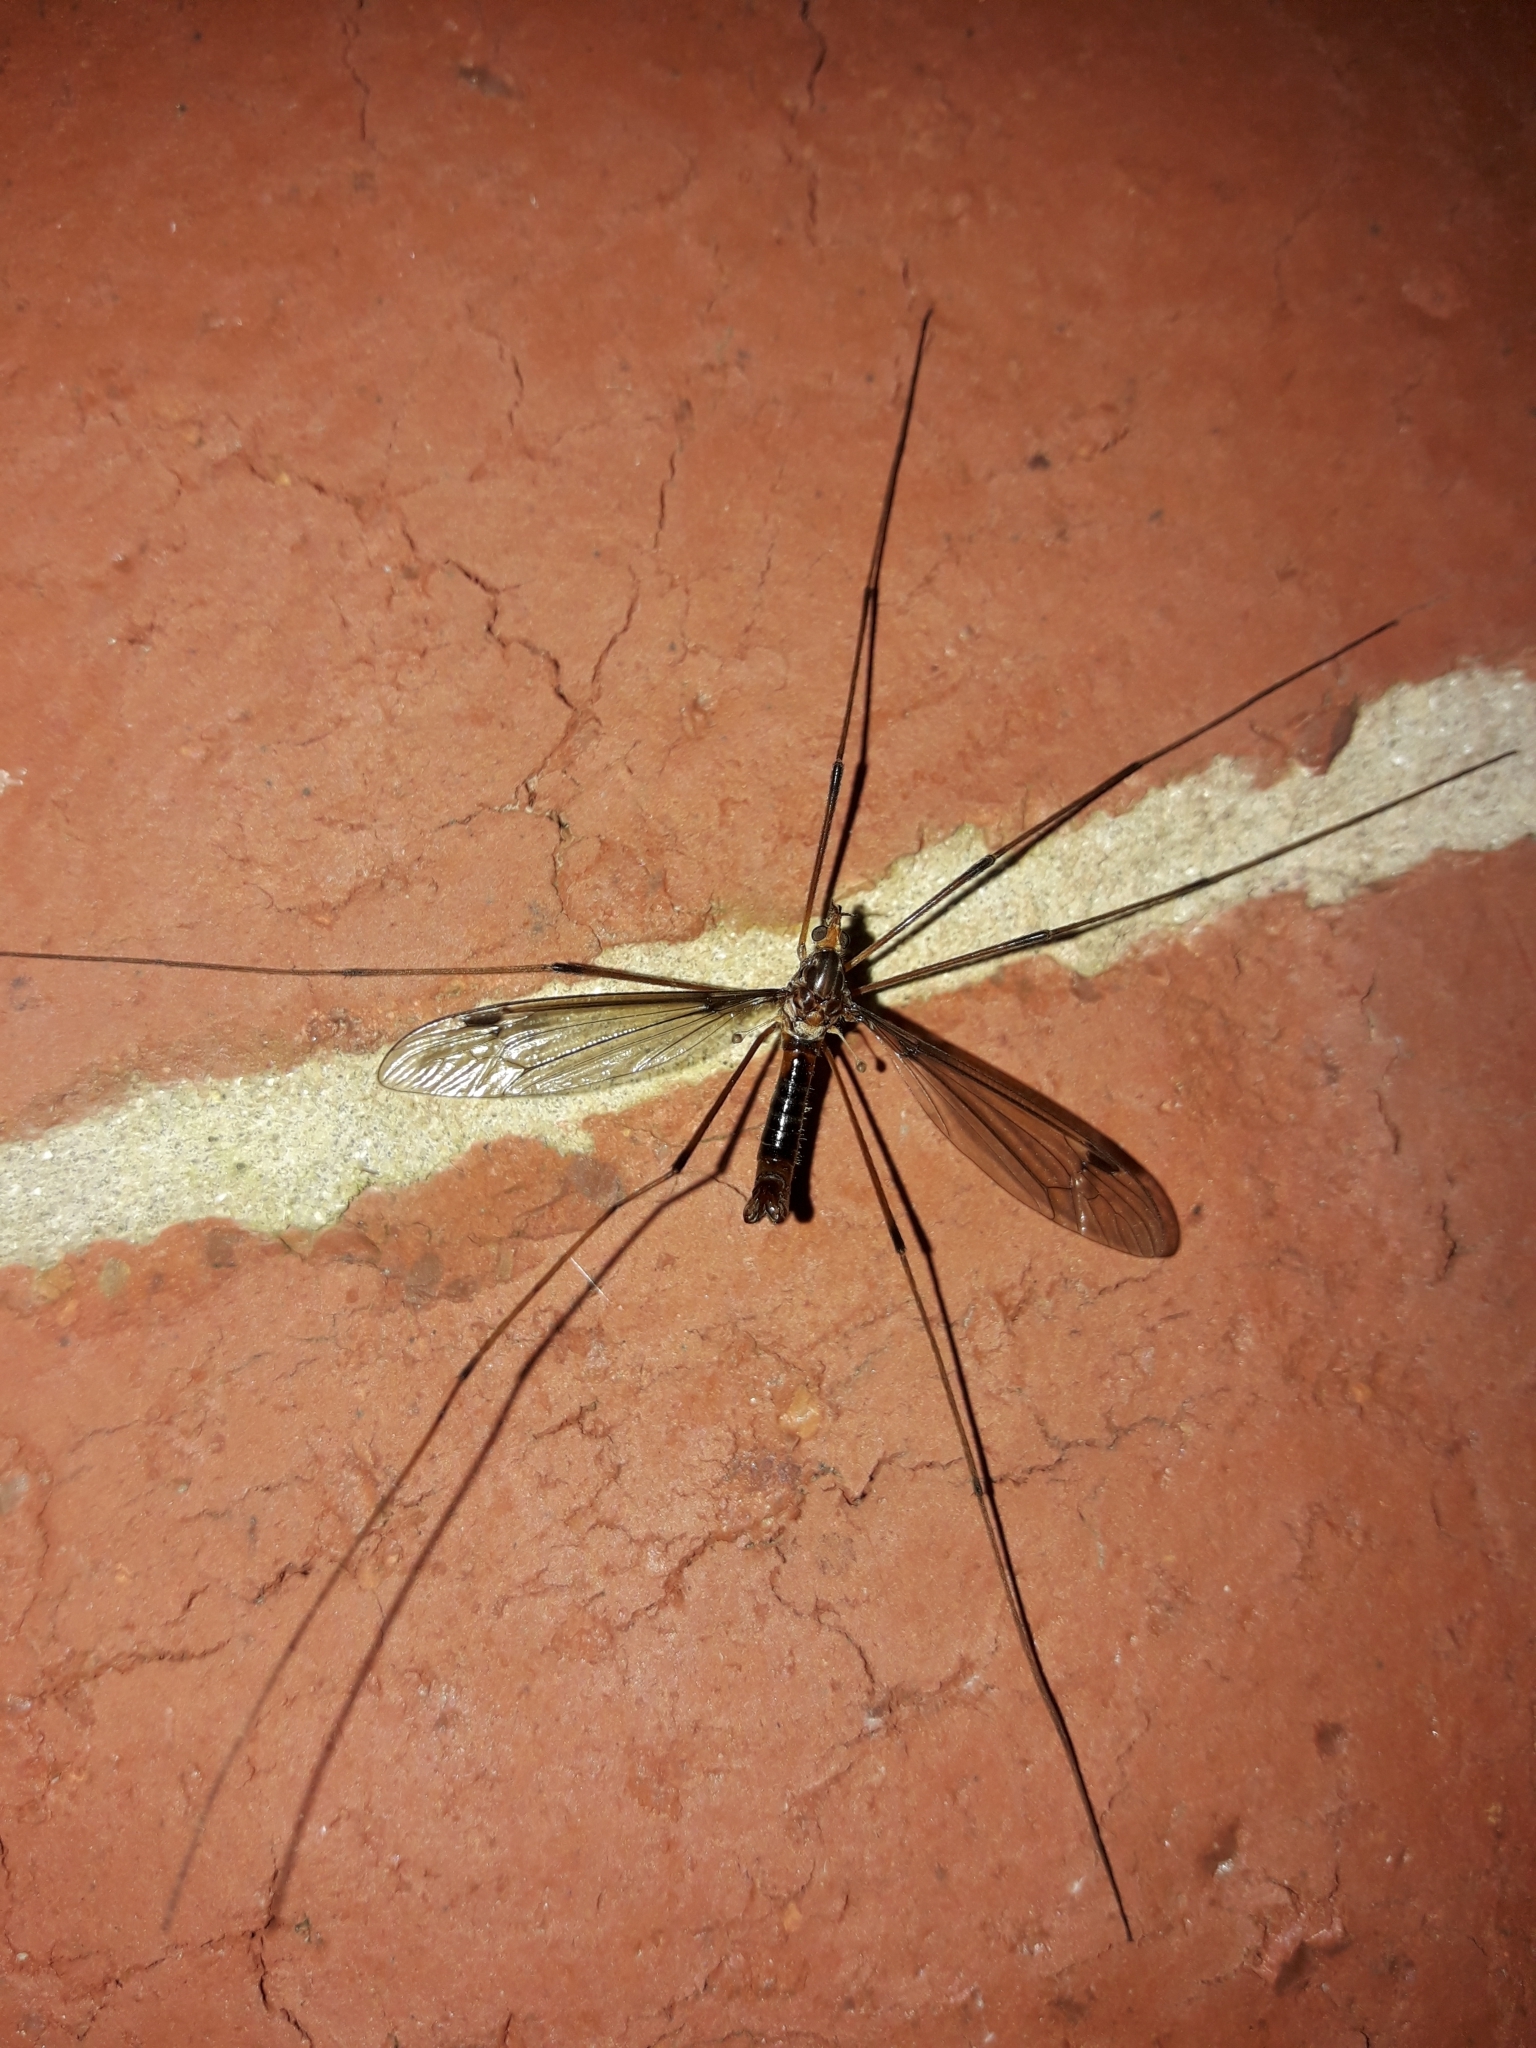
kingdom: Animalia
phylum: Arthropoda
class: Insecta
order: Diptera
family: Tipulidae
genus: Leptotarsus
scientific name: Leptotarsus heterogamus
